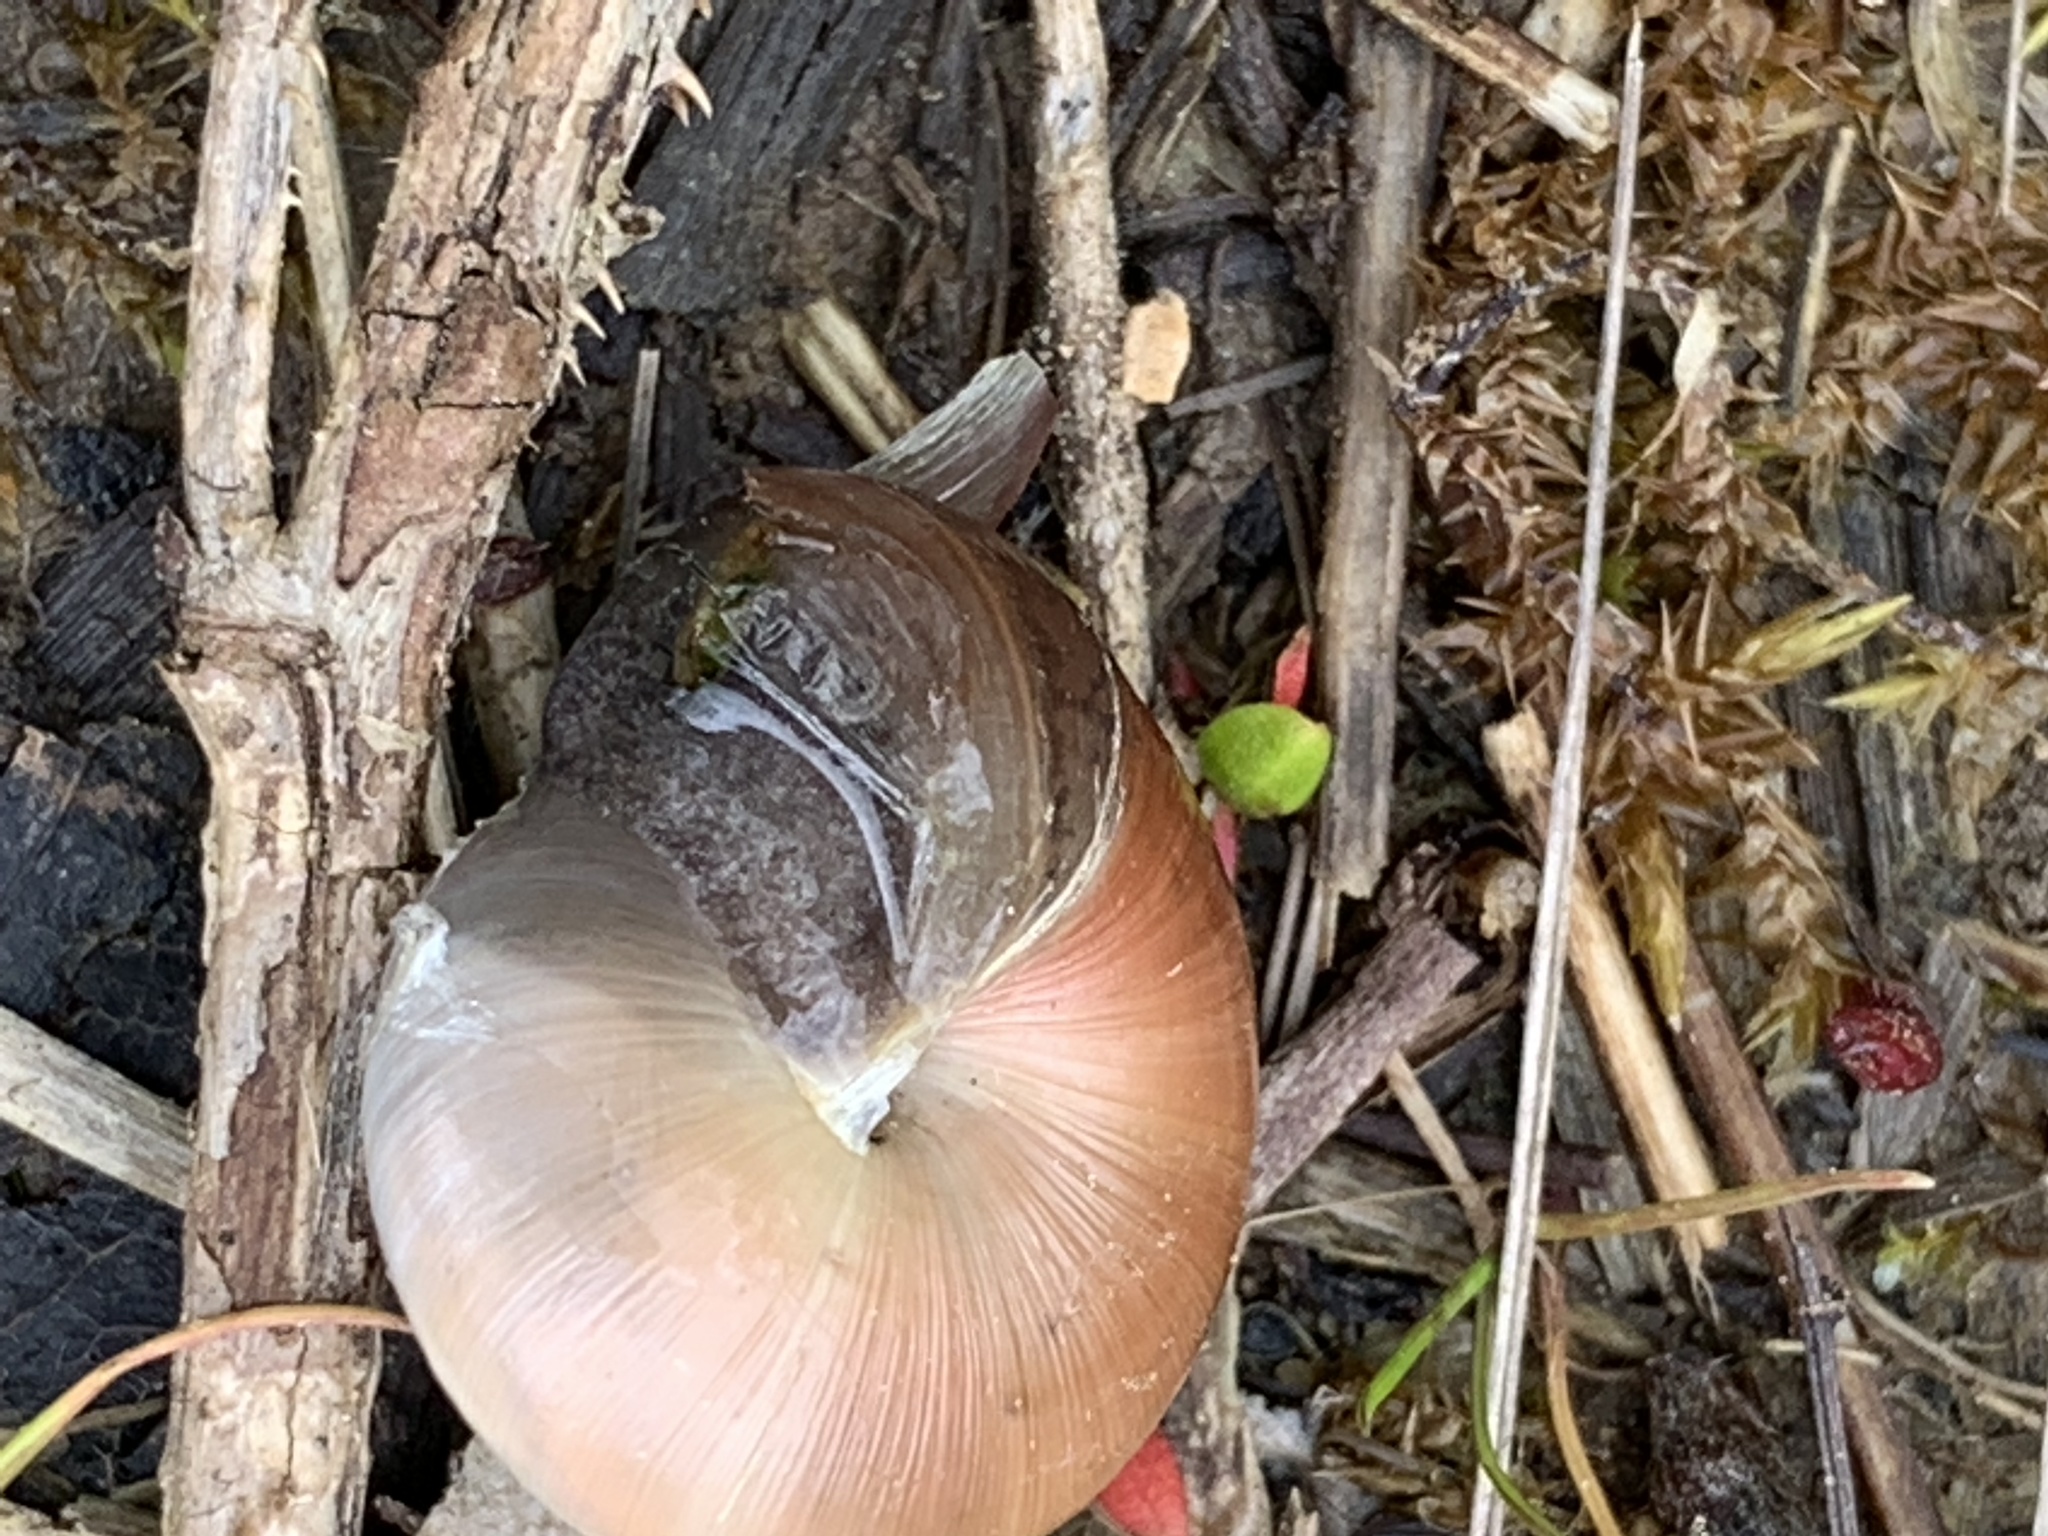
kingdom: Animalia
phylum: Mollusca
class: Gastropoda
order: Stylommatophora
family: Hygromiidae
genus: Monacha
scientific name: Monacha cantiana
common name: Kentish snail
